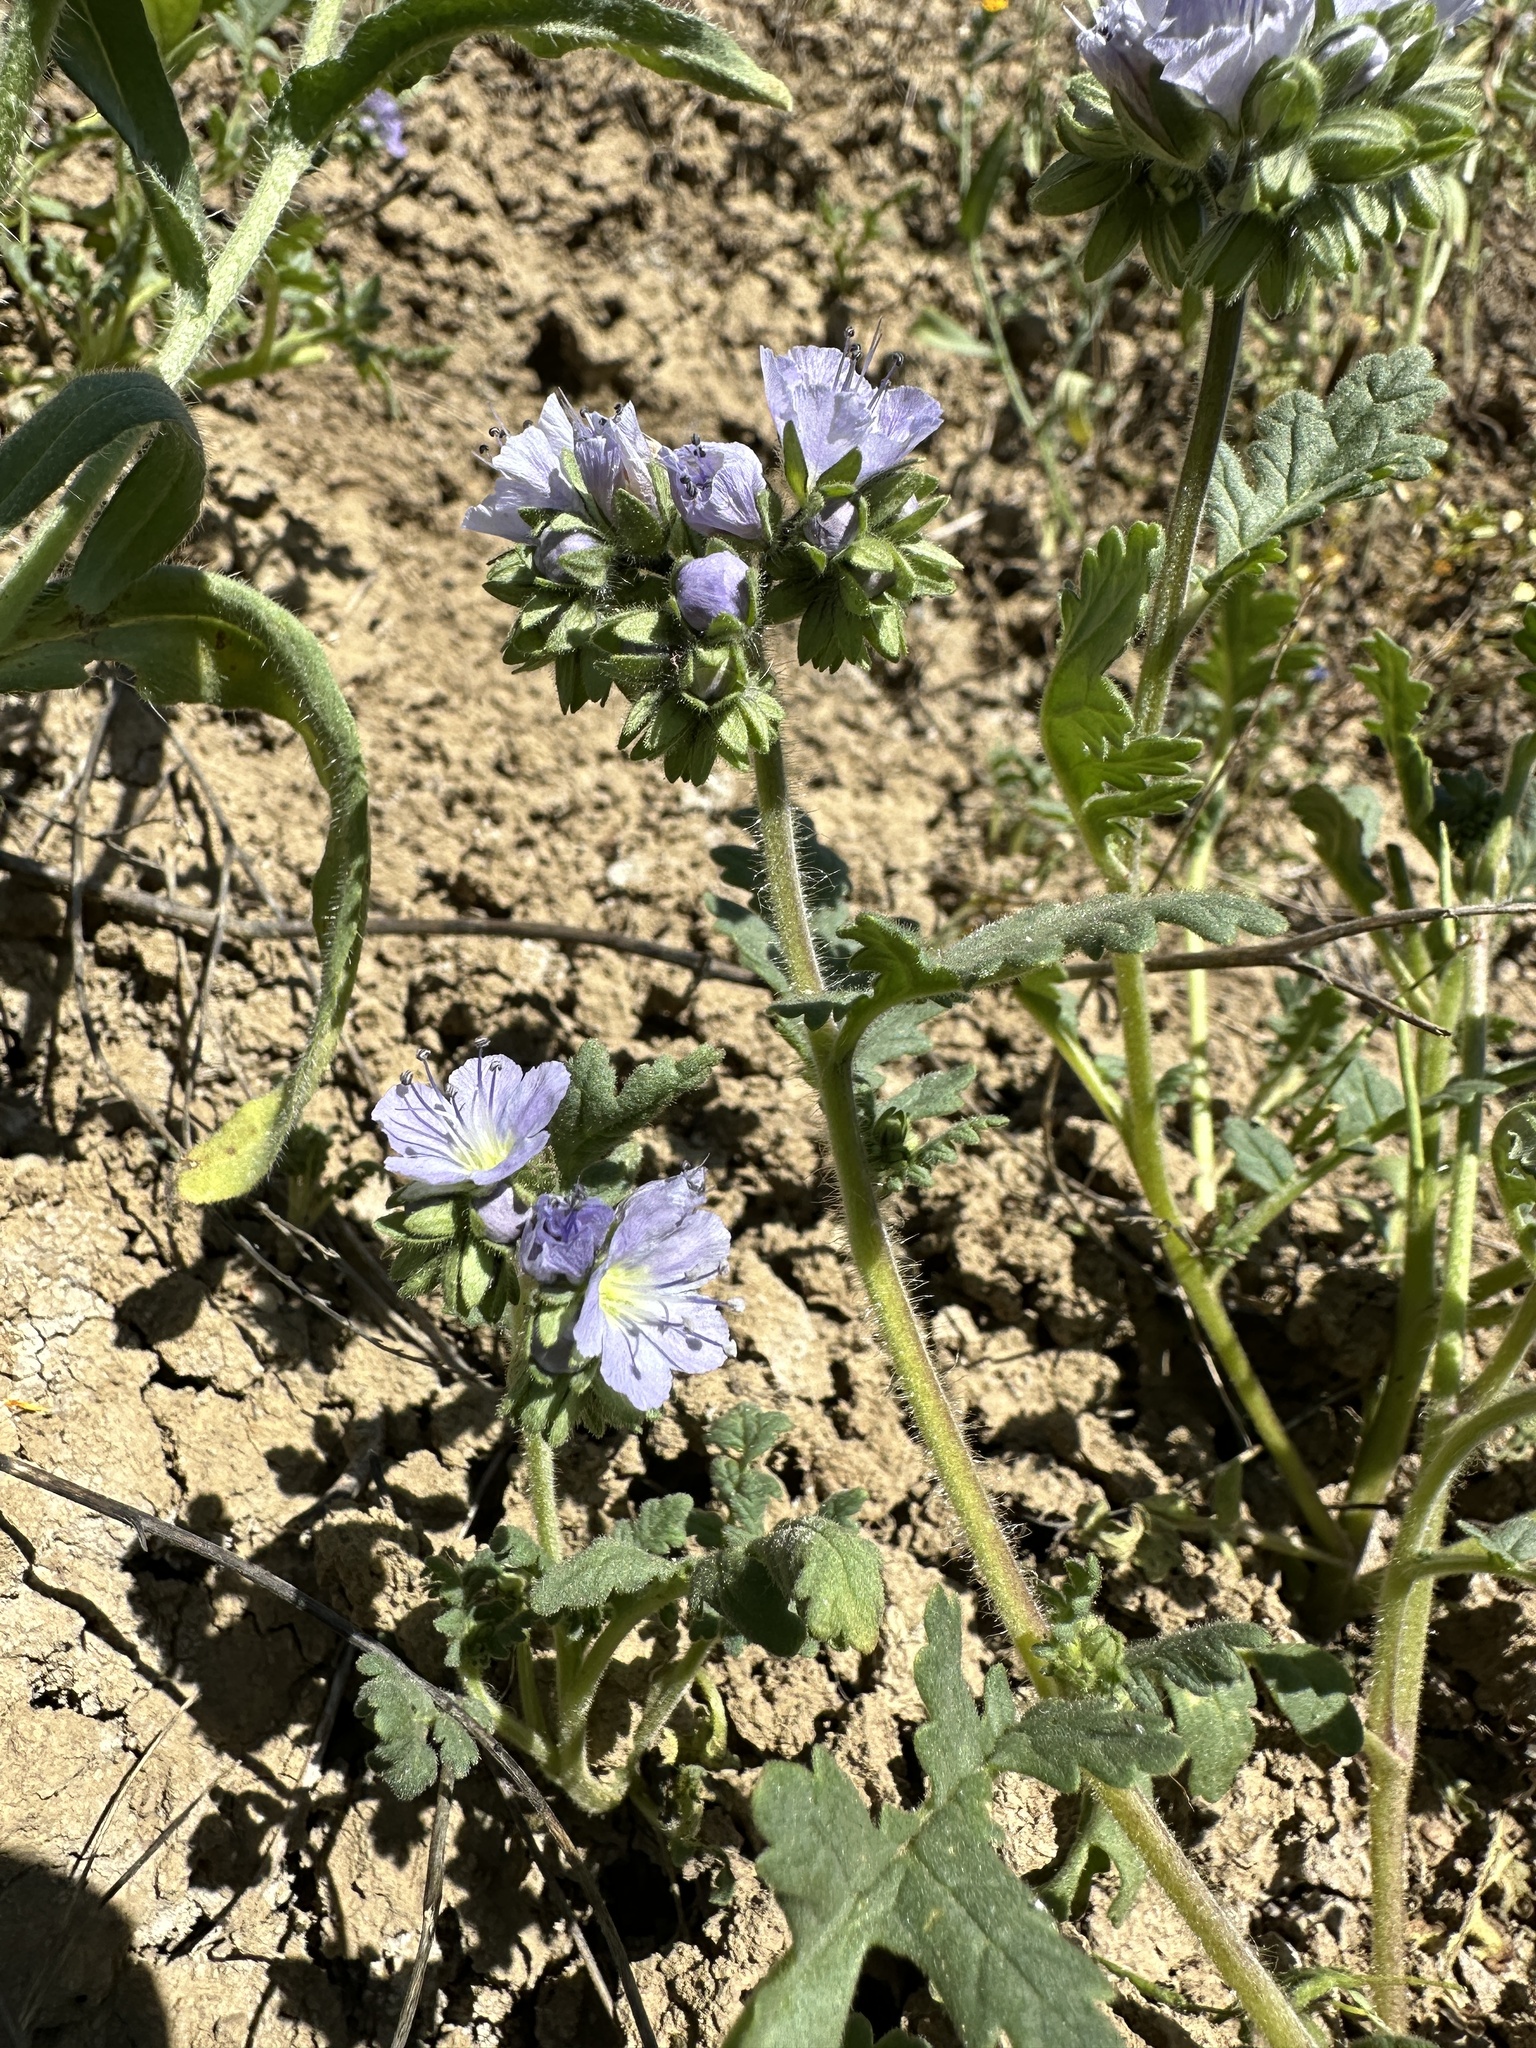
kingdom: Plantae
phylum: Tracheophyta
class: Magnoliopsida
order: Boraginales
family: Hydrophyllaceae
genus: Phacelia
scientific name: Phacelia ciliata
